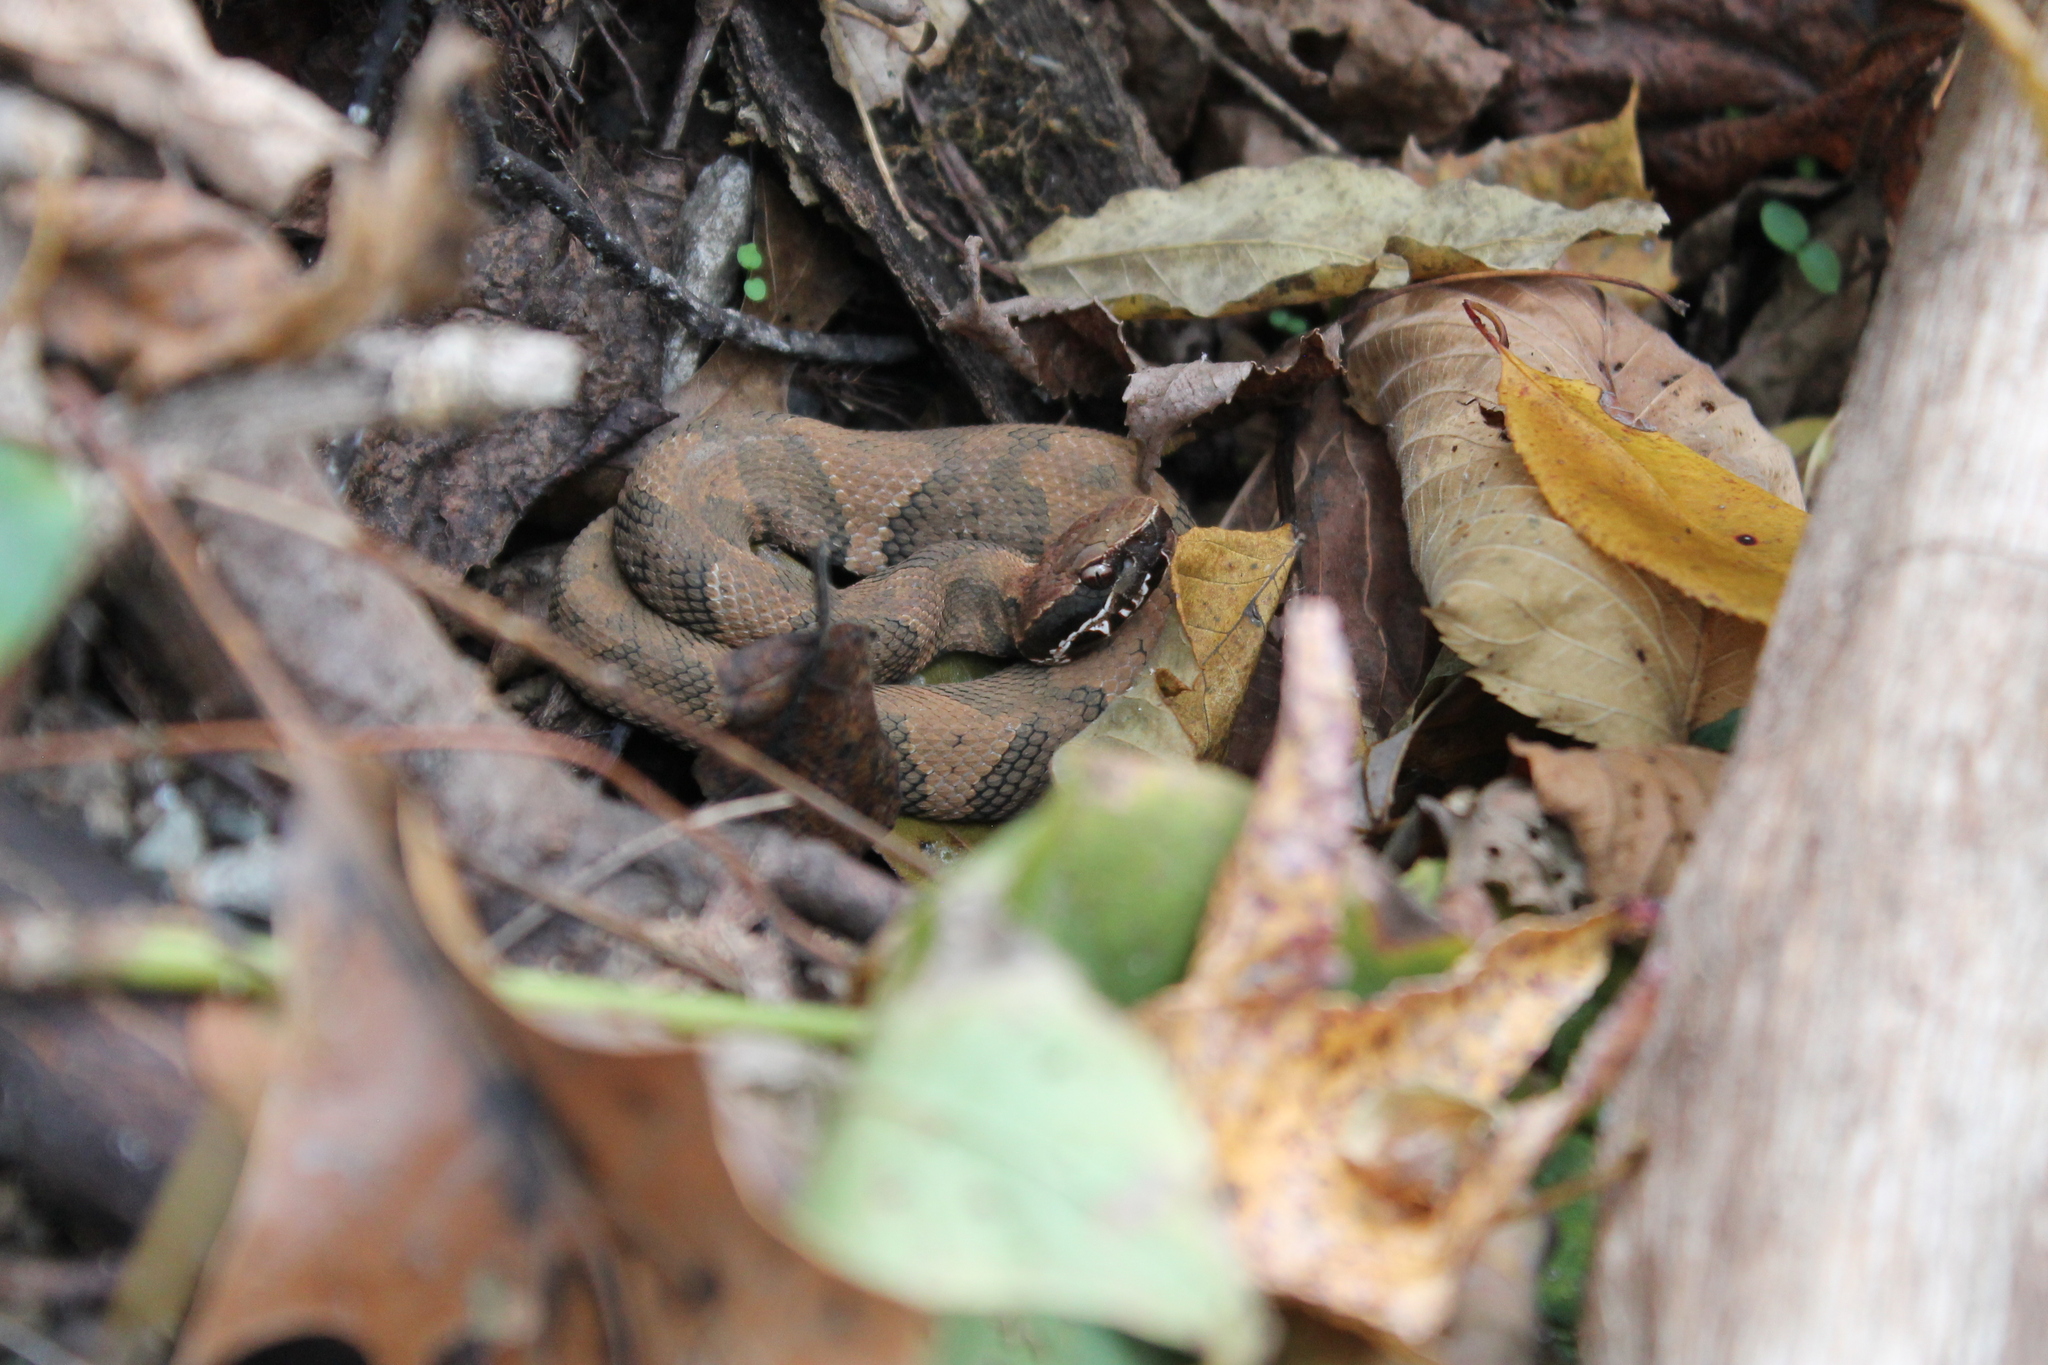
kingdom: Animalia
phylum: Chordata
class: Squamata
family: Viperidae
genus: Agkistrodon
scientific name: Agkistrodon piscivorus
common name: Cottonmouth
